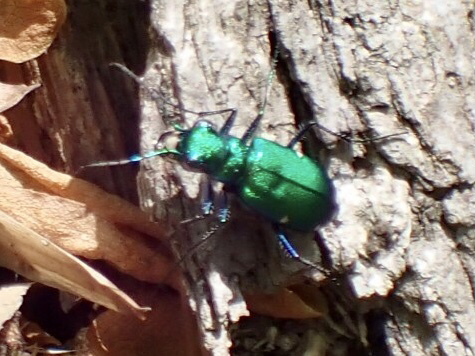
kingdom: Animalia
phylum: Arthropoda
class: Insecta
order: Coleoptera
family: Carabidae
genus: Cicindela
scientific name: Cicindela sexguttata
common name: Six-spotted tiger beetle
